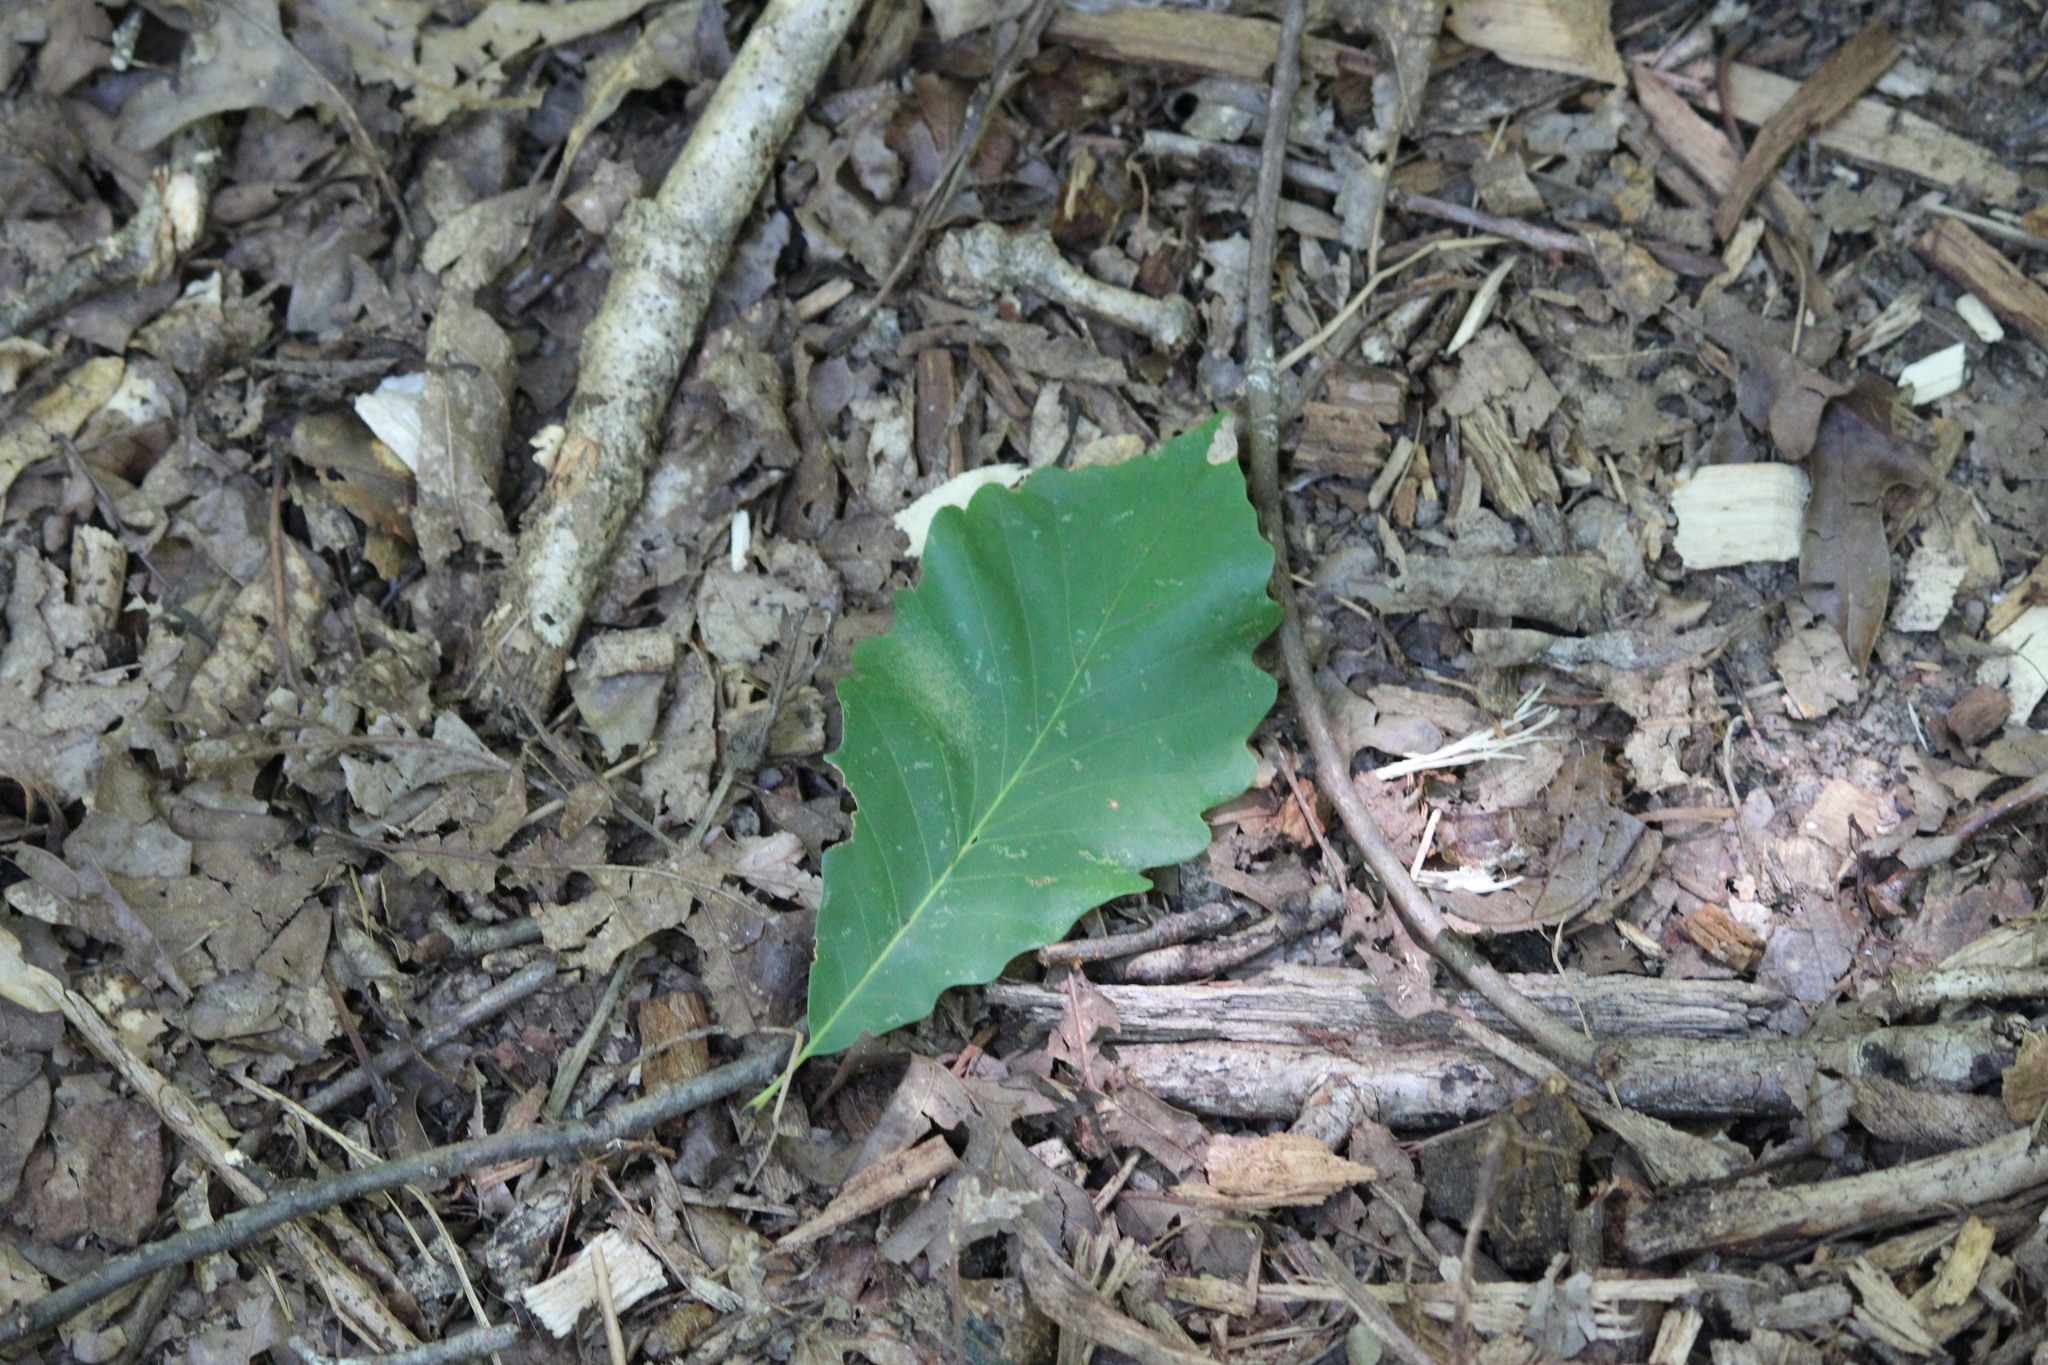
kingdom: Plantae
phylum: Tracheophyta
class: Magnoliopsida
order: Fagales
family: Fagaceae
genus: Quercus
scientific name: Quercus montana
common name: Chestnut oak
